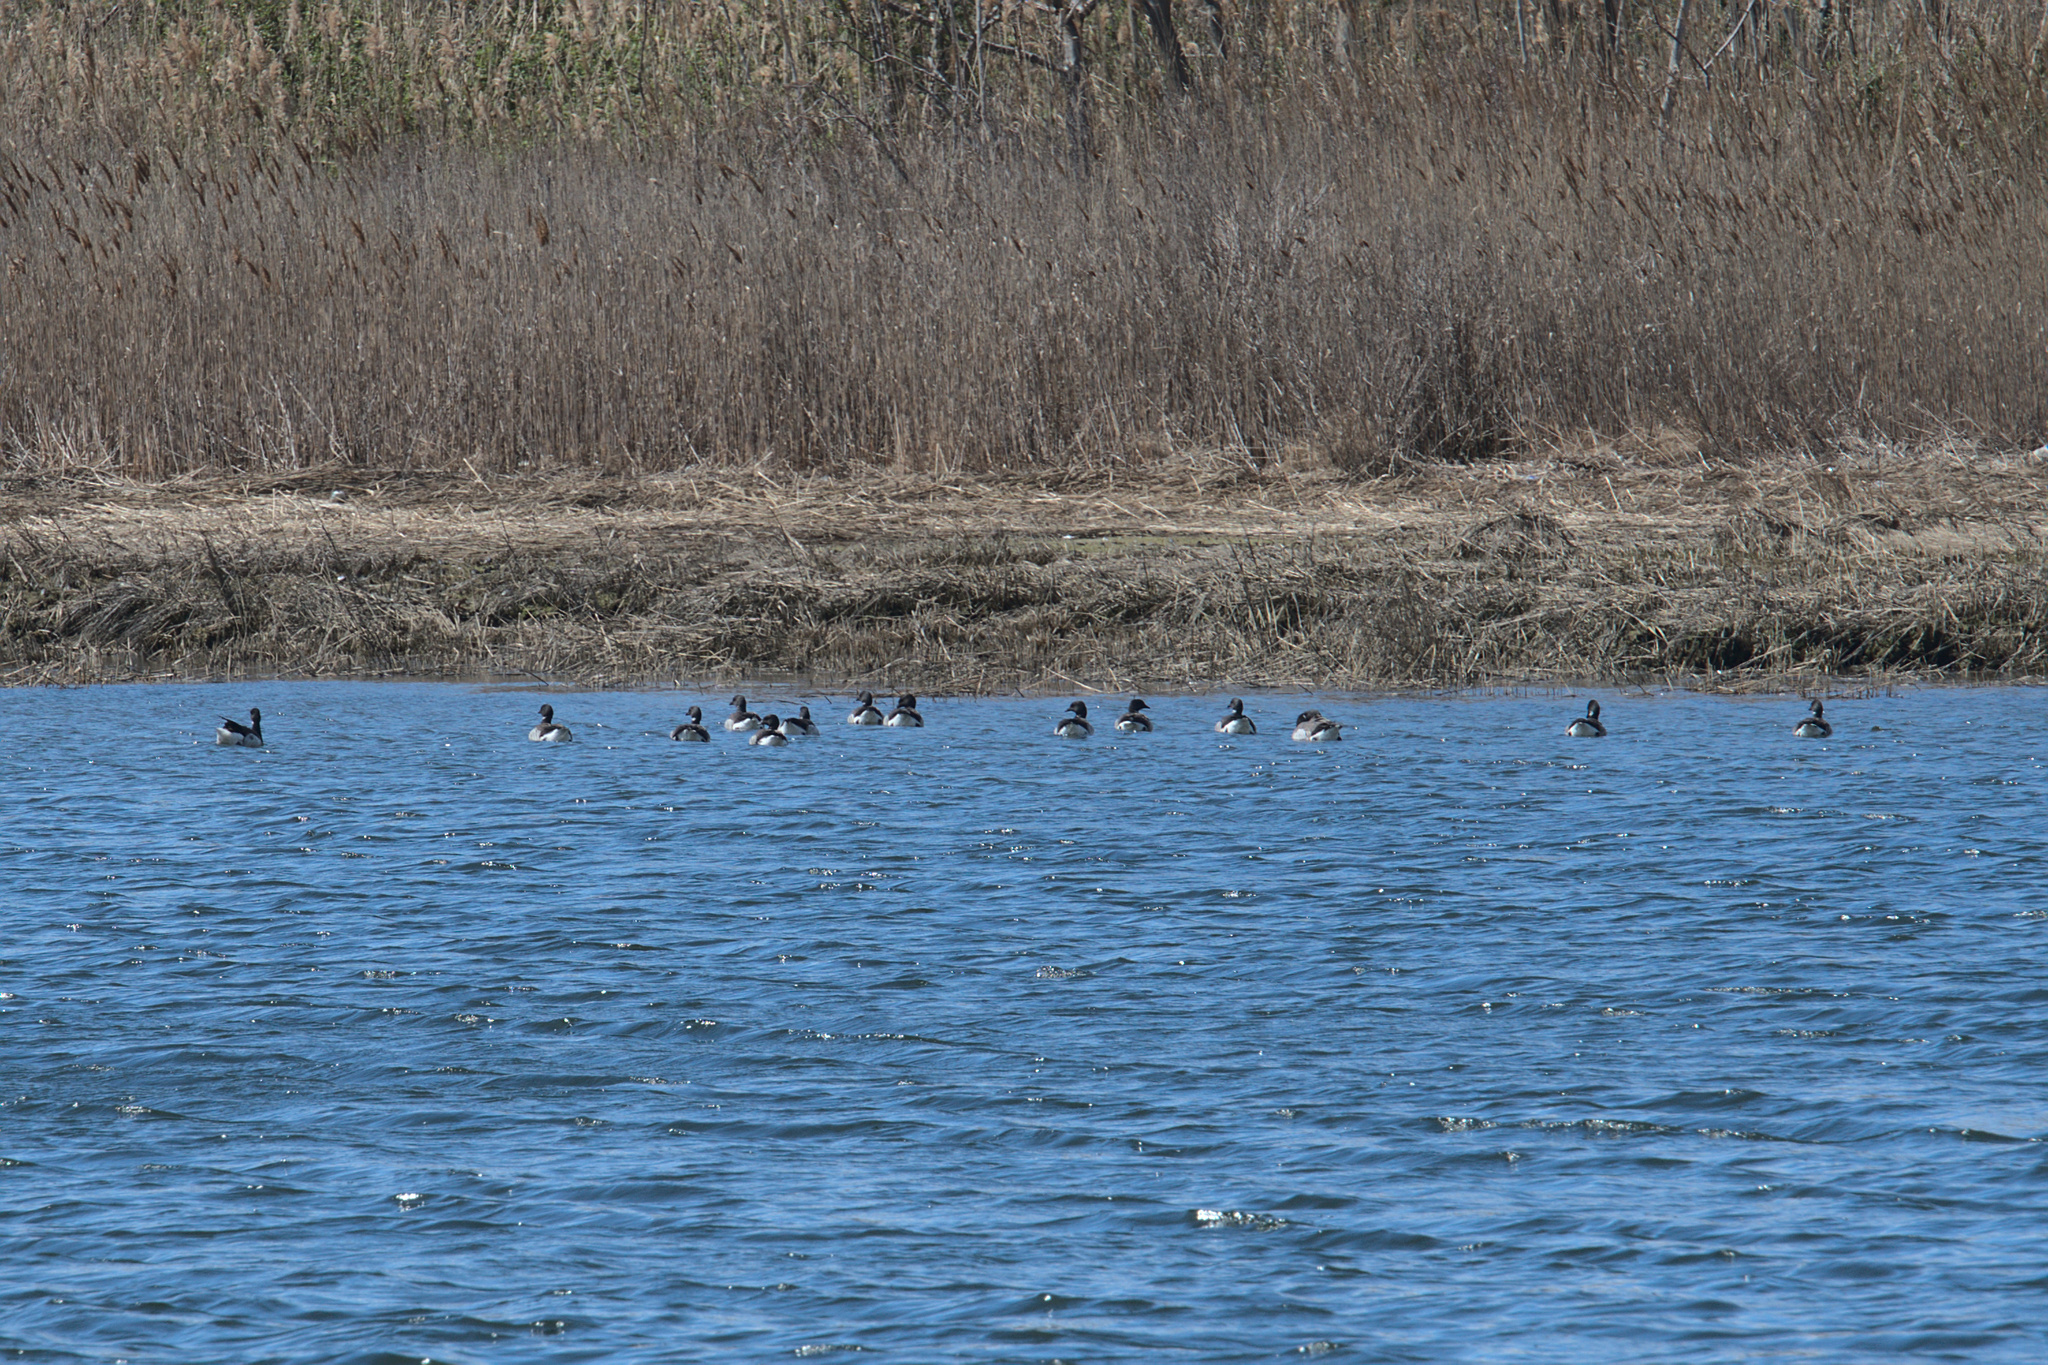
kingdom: Animalia
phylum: Chordata
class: Aves
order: Anseriformes
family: Anatidae
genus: Branta
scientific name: Branta bernicla
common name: Brant goose
